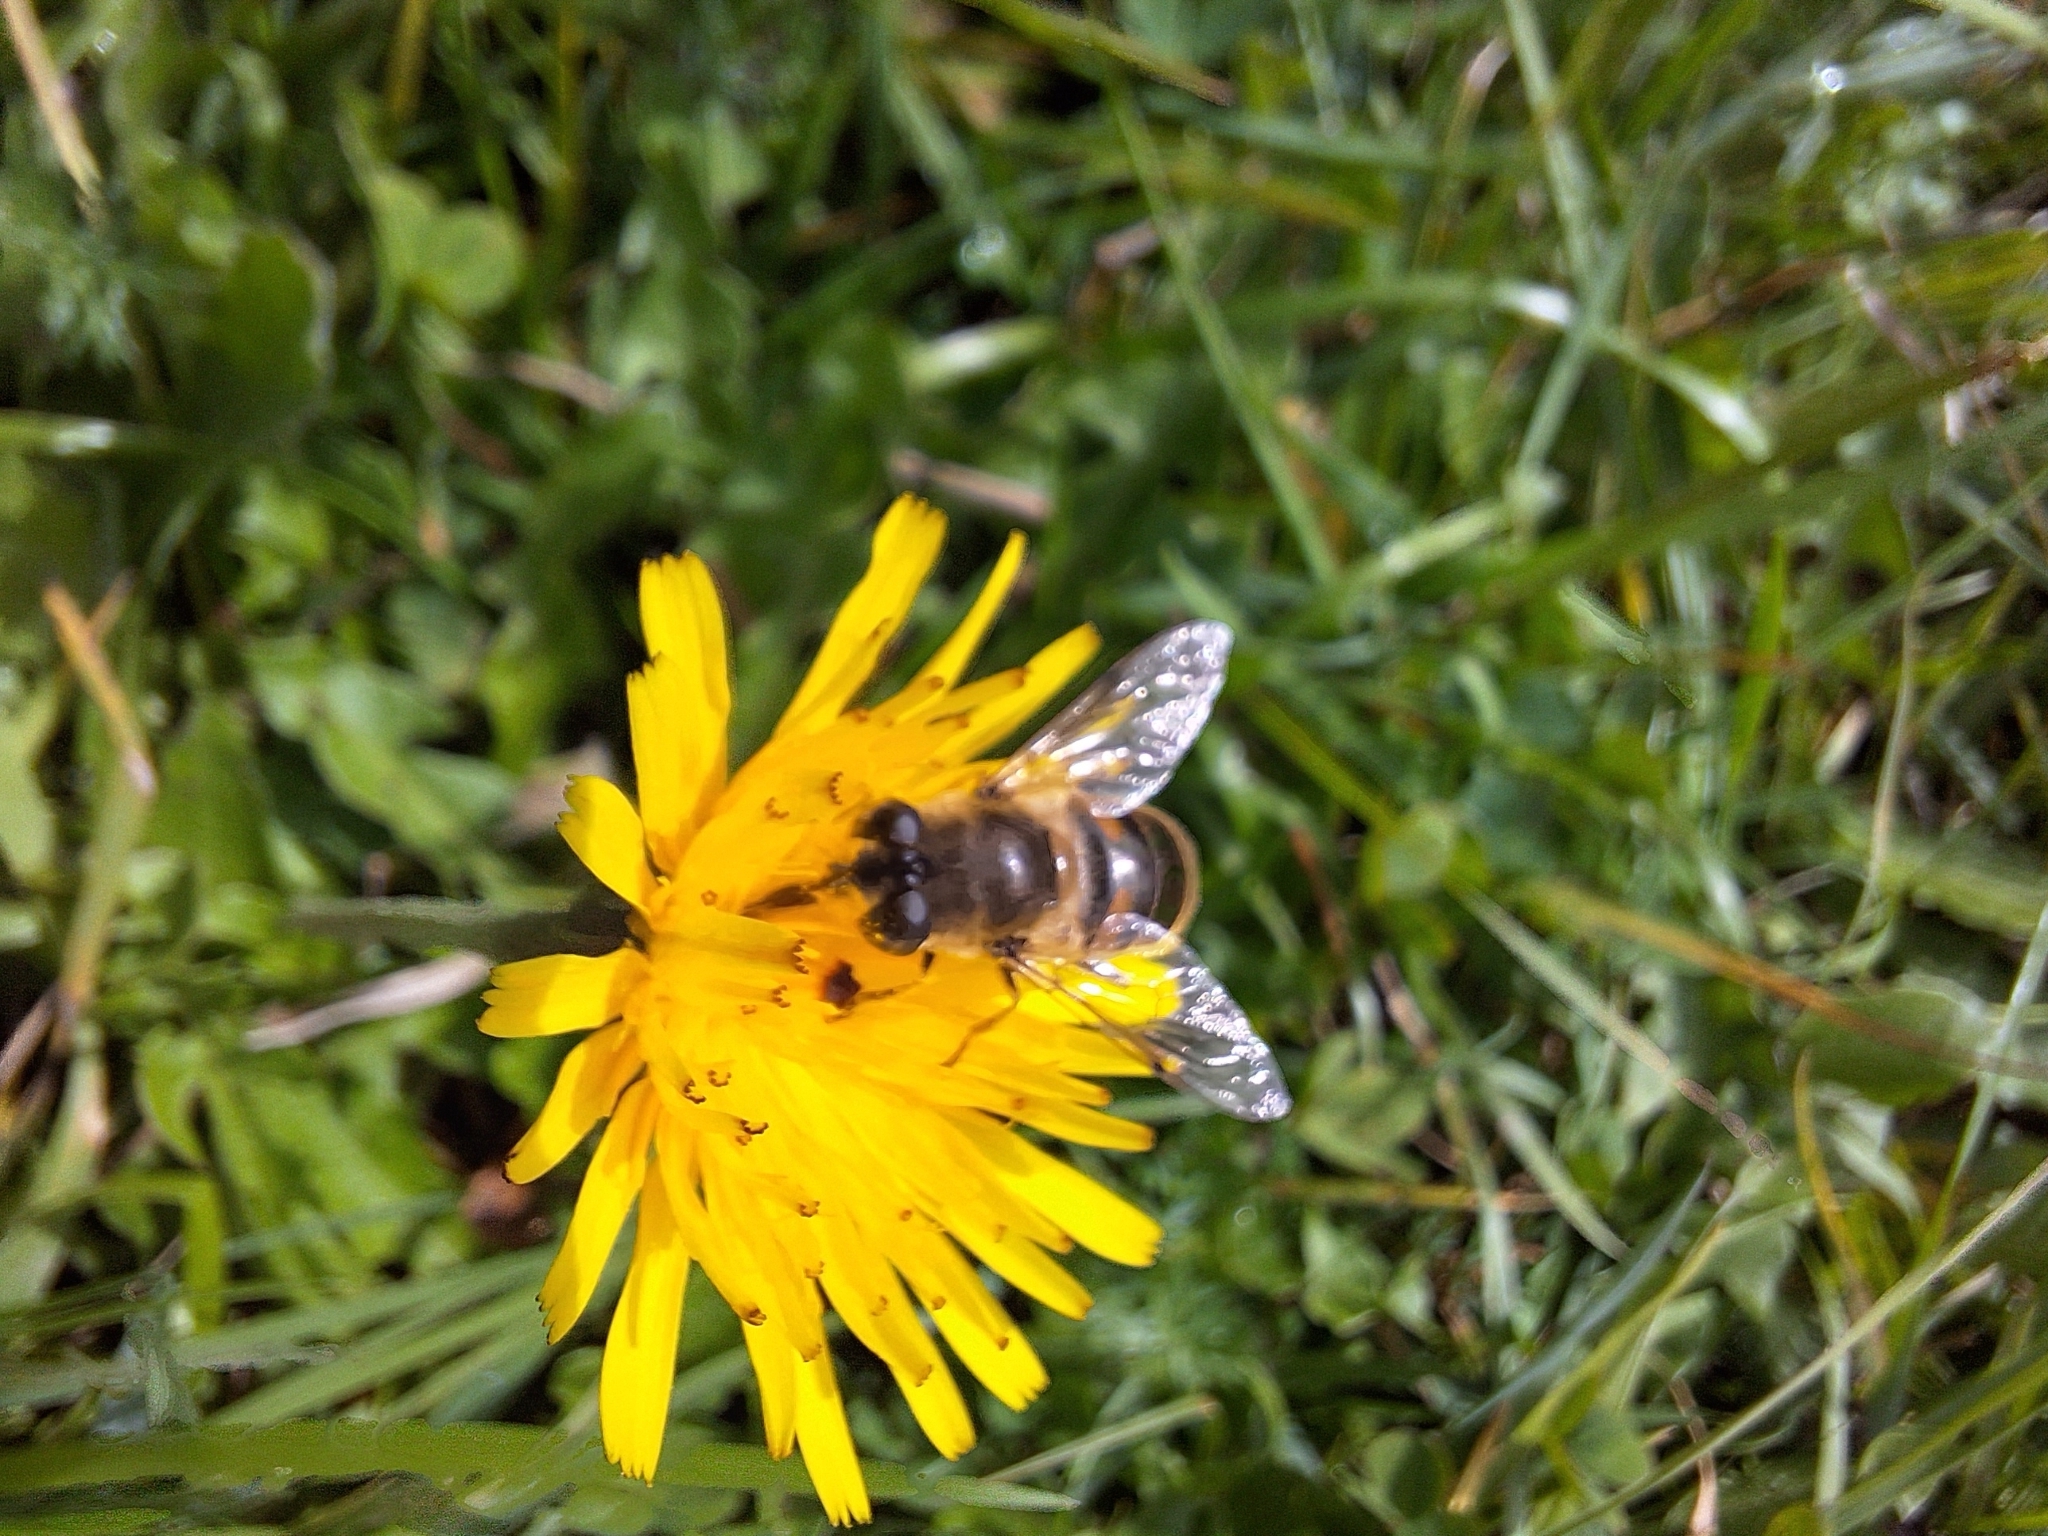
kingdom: Animalia
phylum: Arthropoda
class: Insecta
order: Diptera
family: Syrphidae
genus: Eristalis
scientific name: Eristalis tenax
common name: Drone fly
